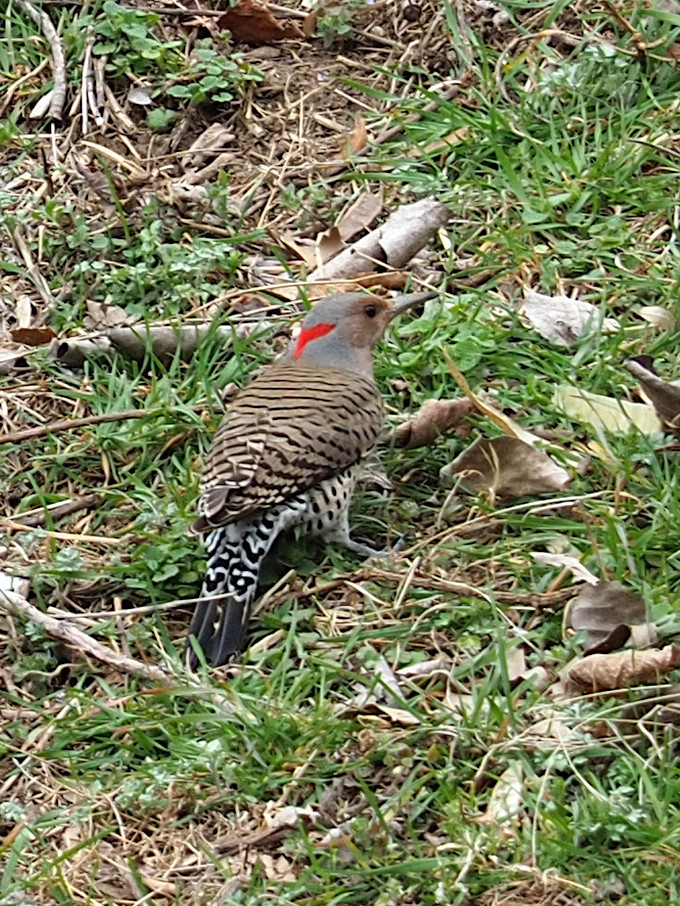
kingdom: Animalia
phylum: Chordata
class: Aves
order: Piciformes
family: Picidae
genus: Colaptes
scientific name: Colaptes auratus
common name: Northern flicker
